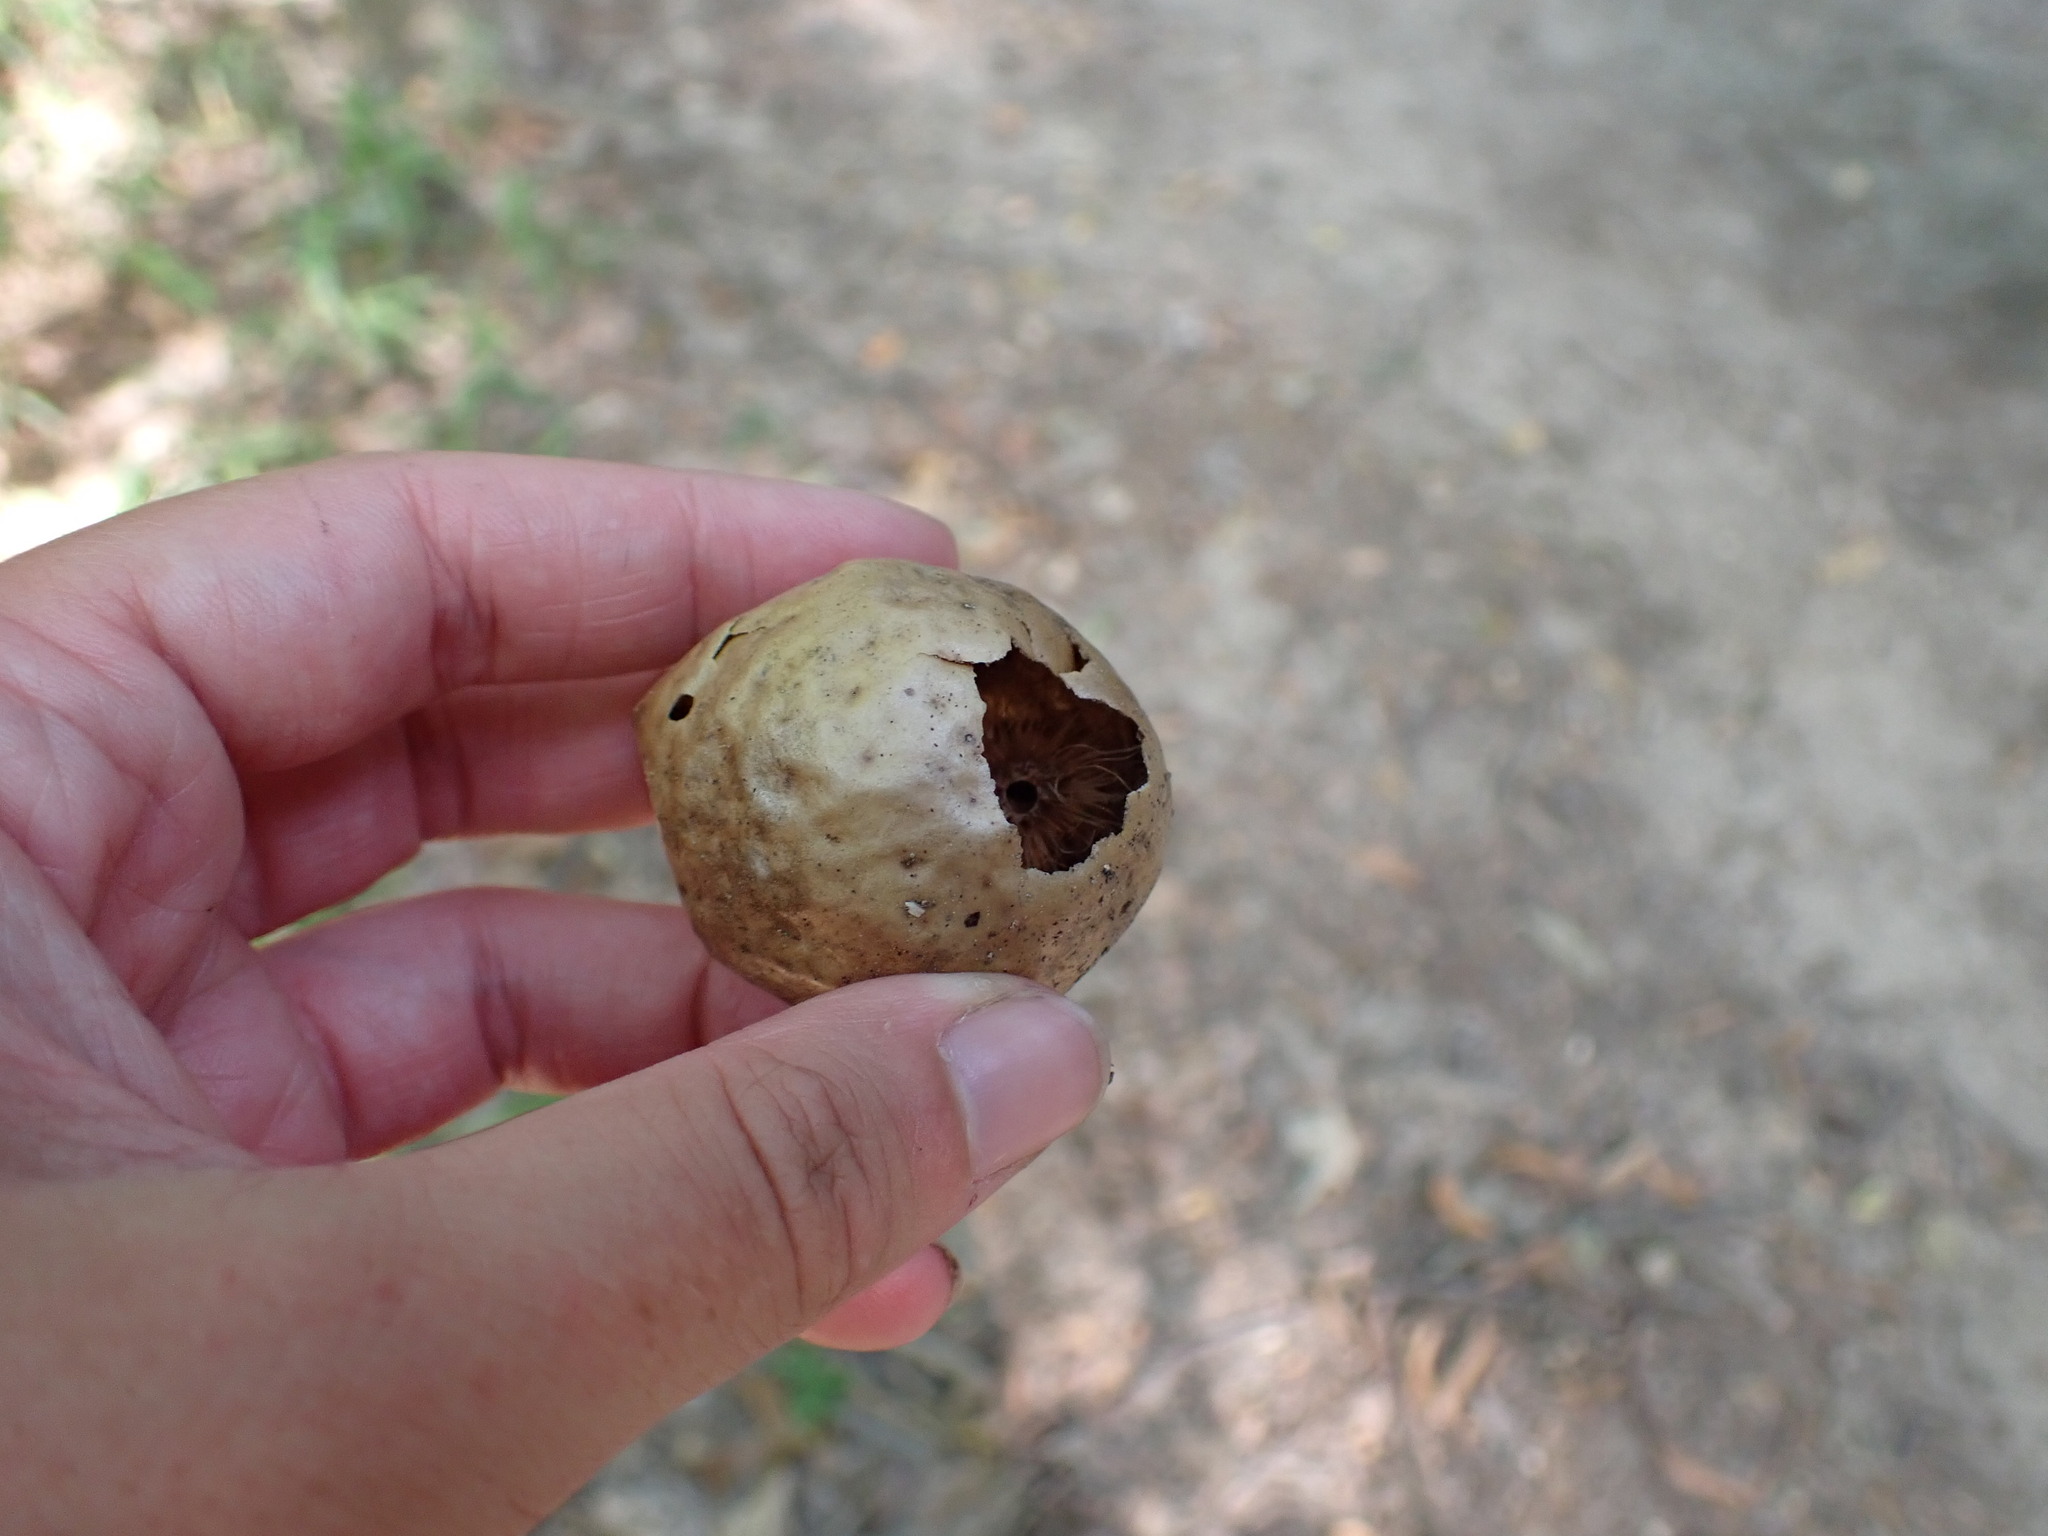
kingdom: Animalia
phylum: Arthropoda
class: Insecta
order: Hymenoptera
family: Cynipidae
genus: Amphibolips
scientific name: Amphibolips
